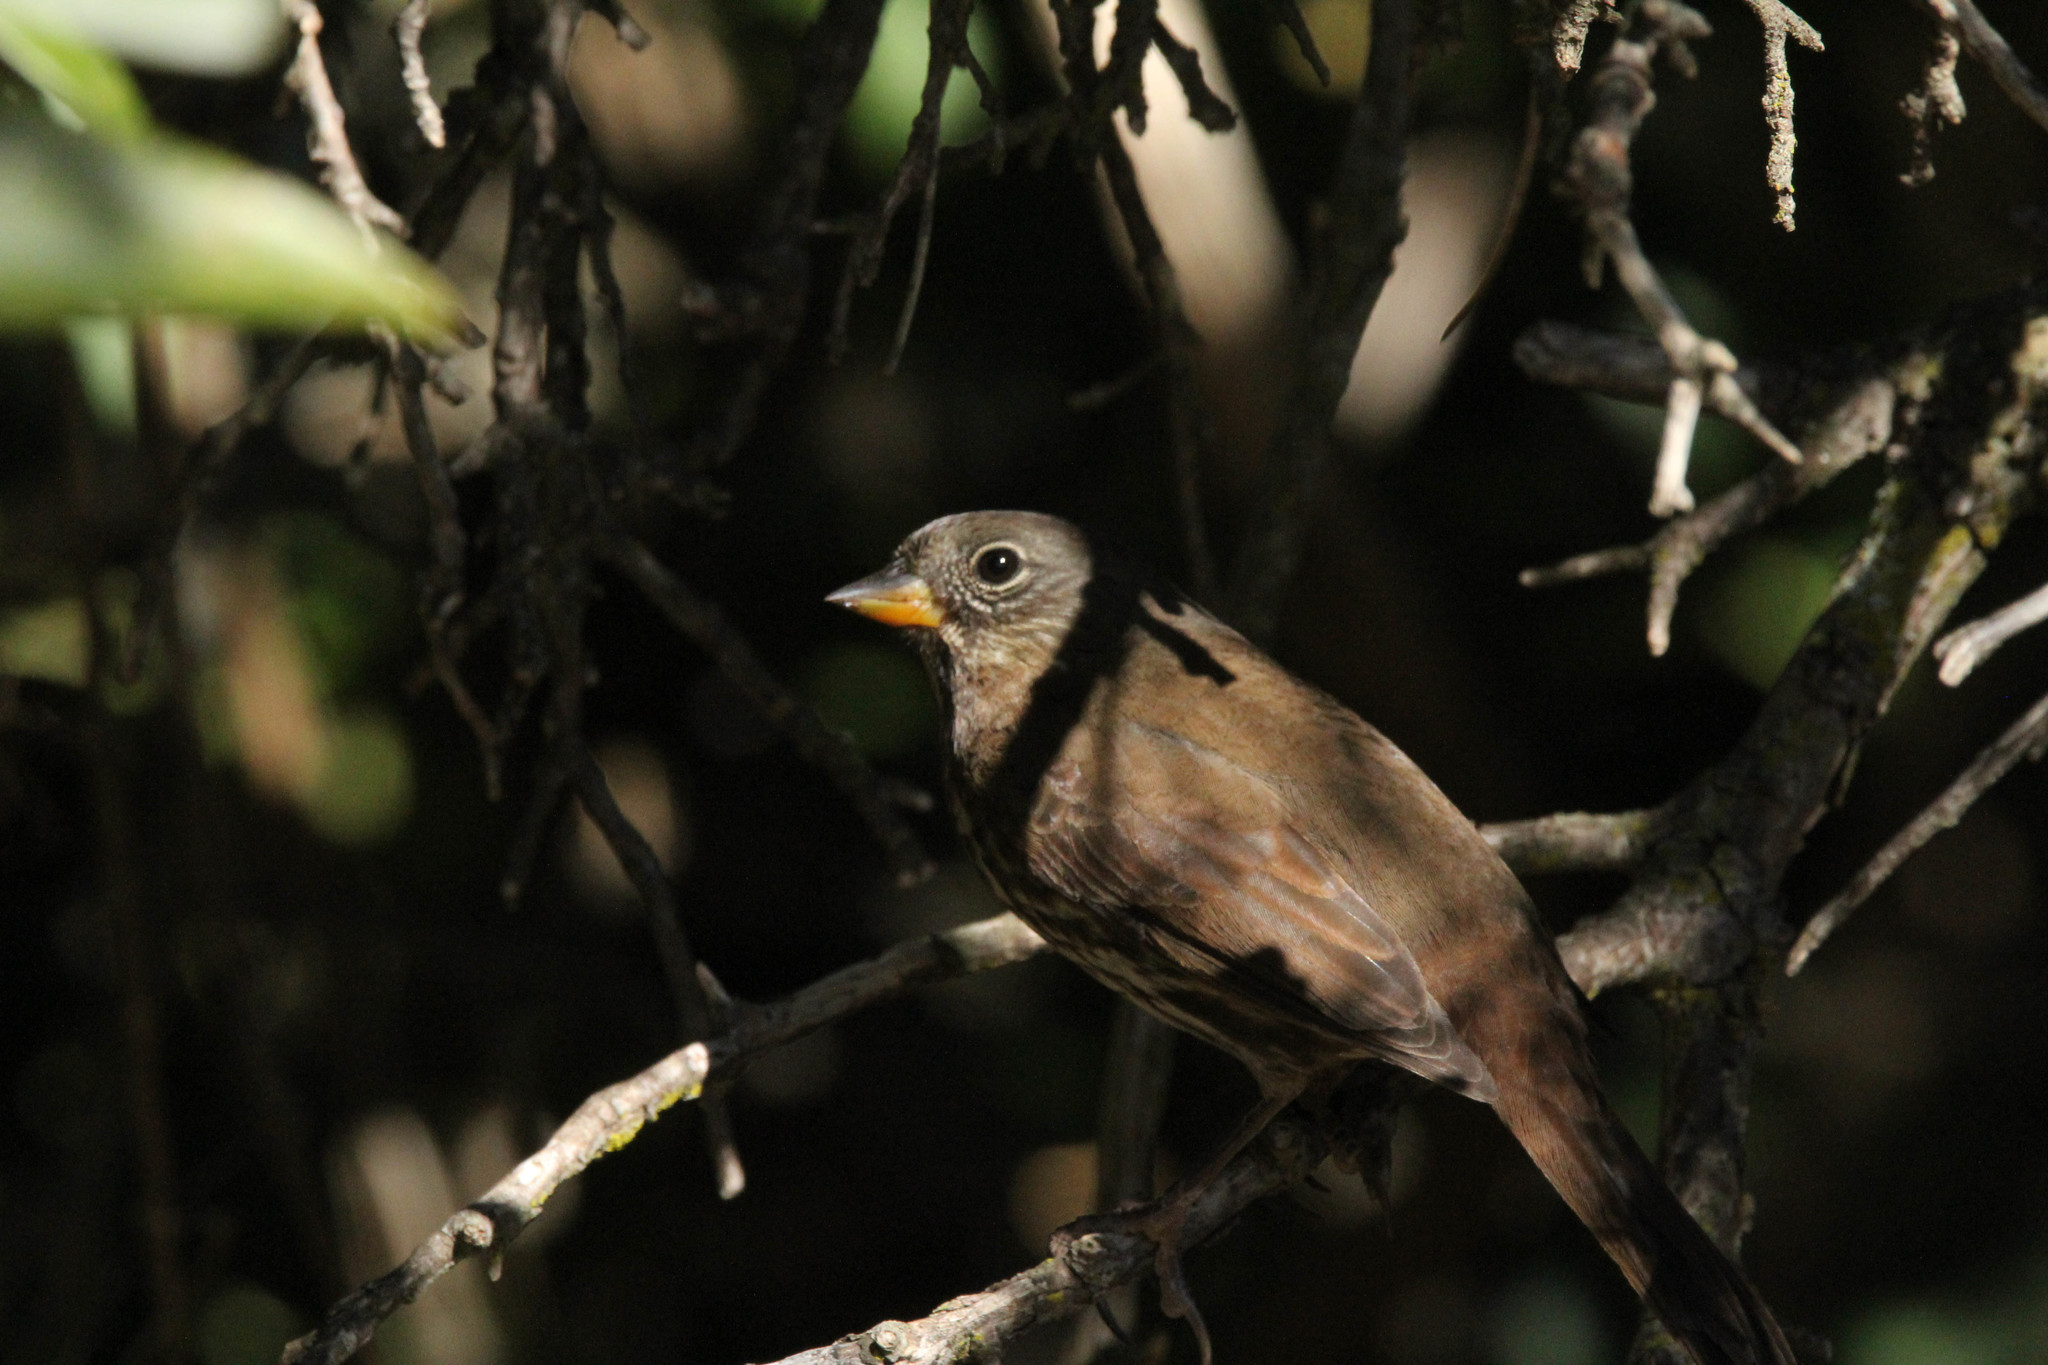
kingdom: Animalia
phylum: Chordata
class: Aves
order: Passeriformes
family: Passerellidae
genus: Passerella
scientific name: Passerella iliaca
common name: Fox sparrow
